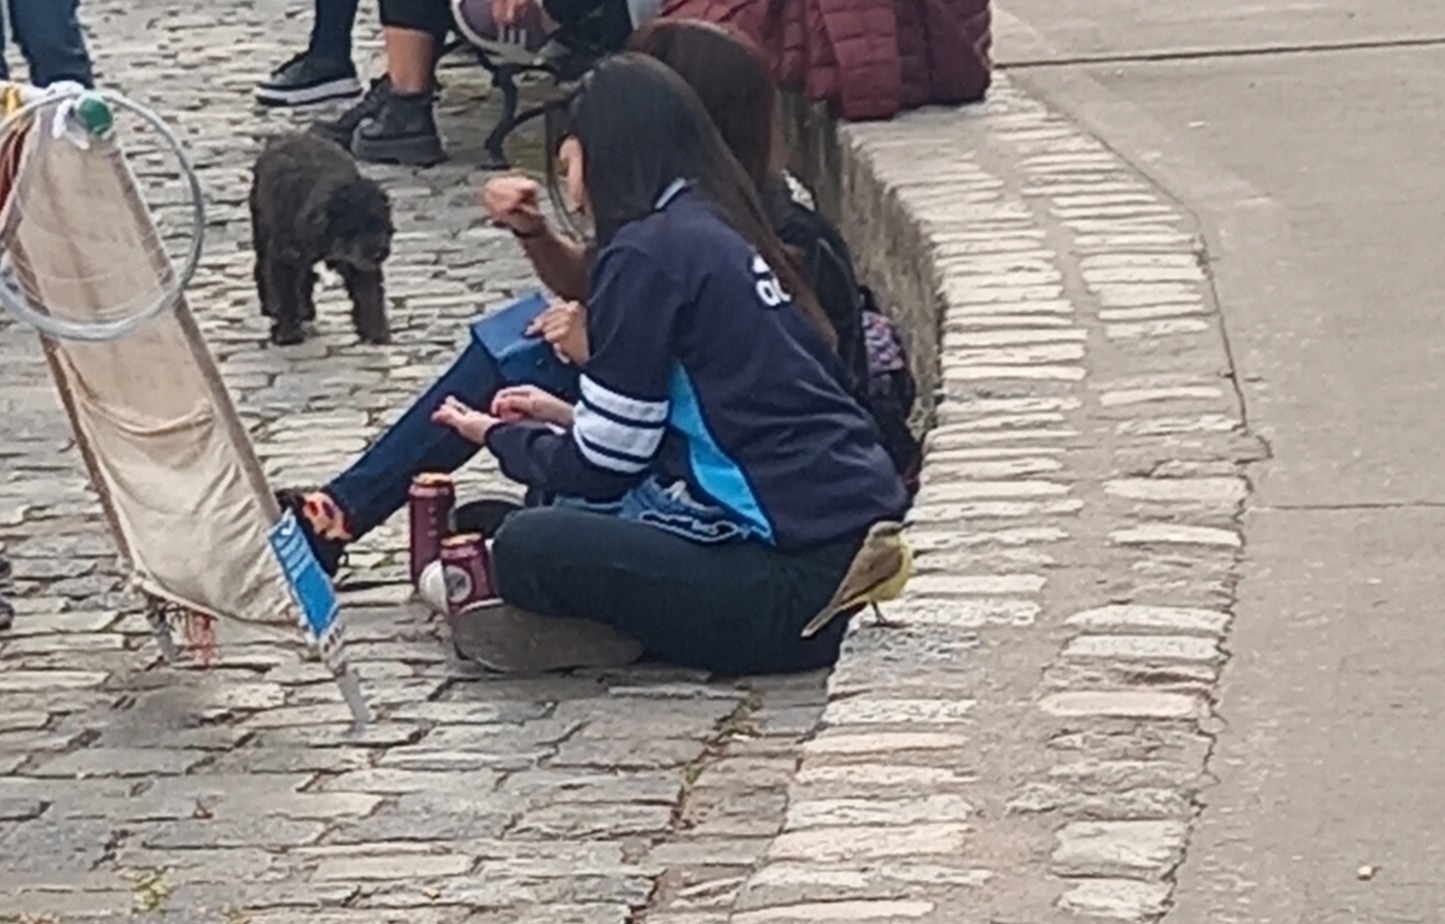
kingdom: Animalia
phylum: Chordata
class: Aves
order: Passeriformes
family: Tyrannidae
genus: Machetornis
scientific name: Machetornis rixosa
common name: Cattle tyrant
